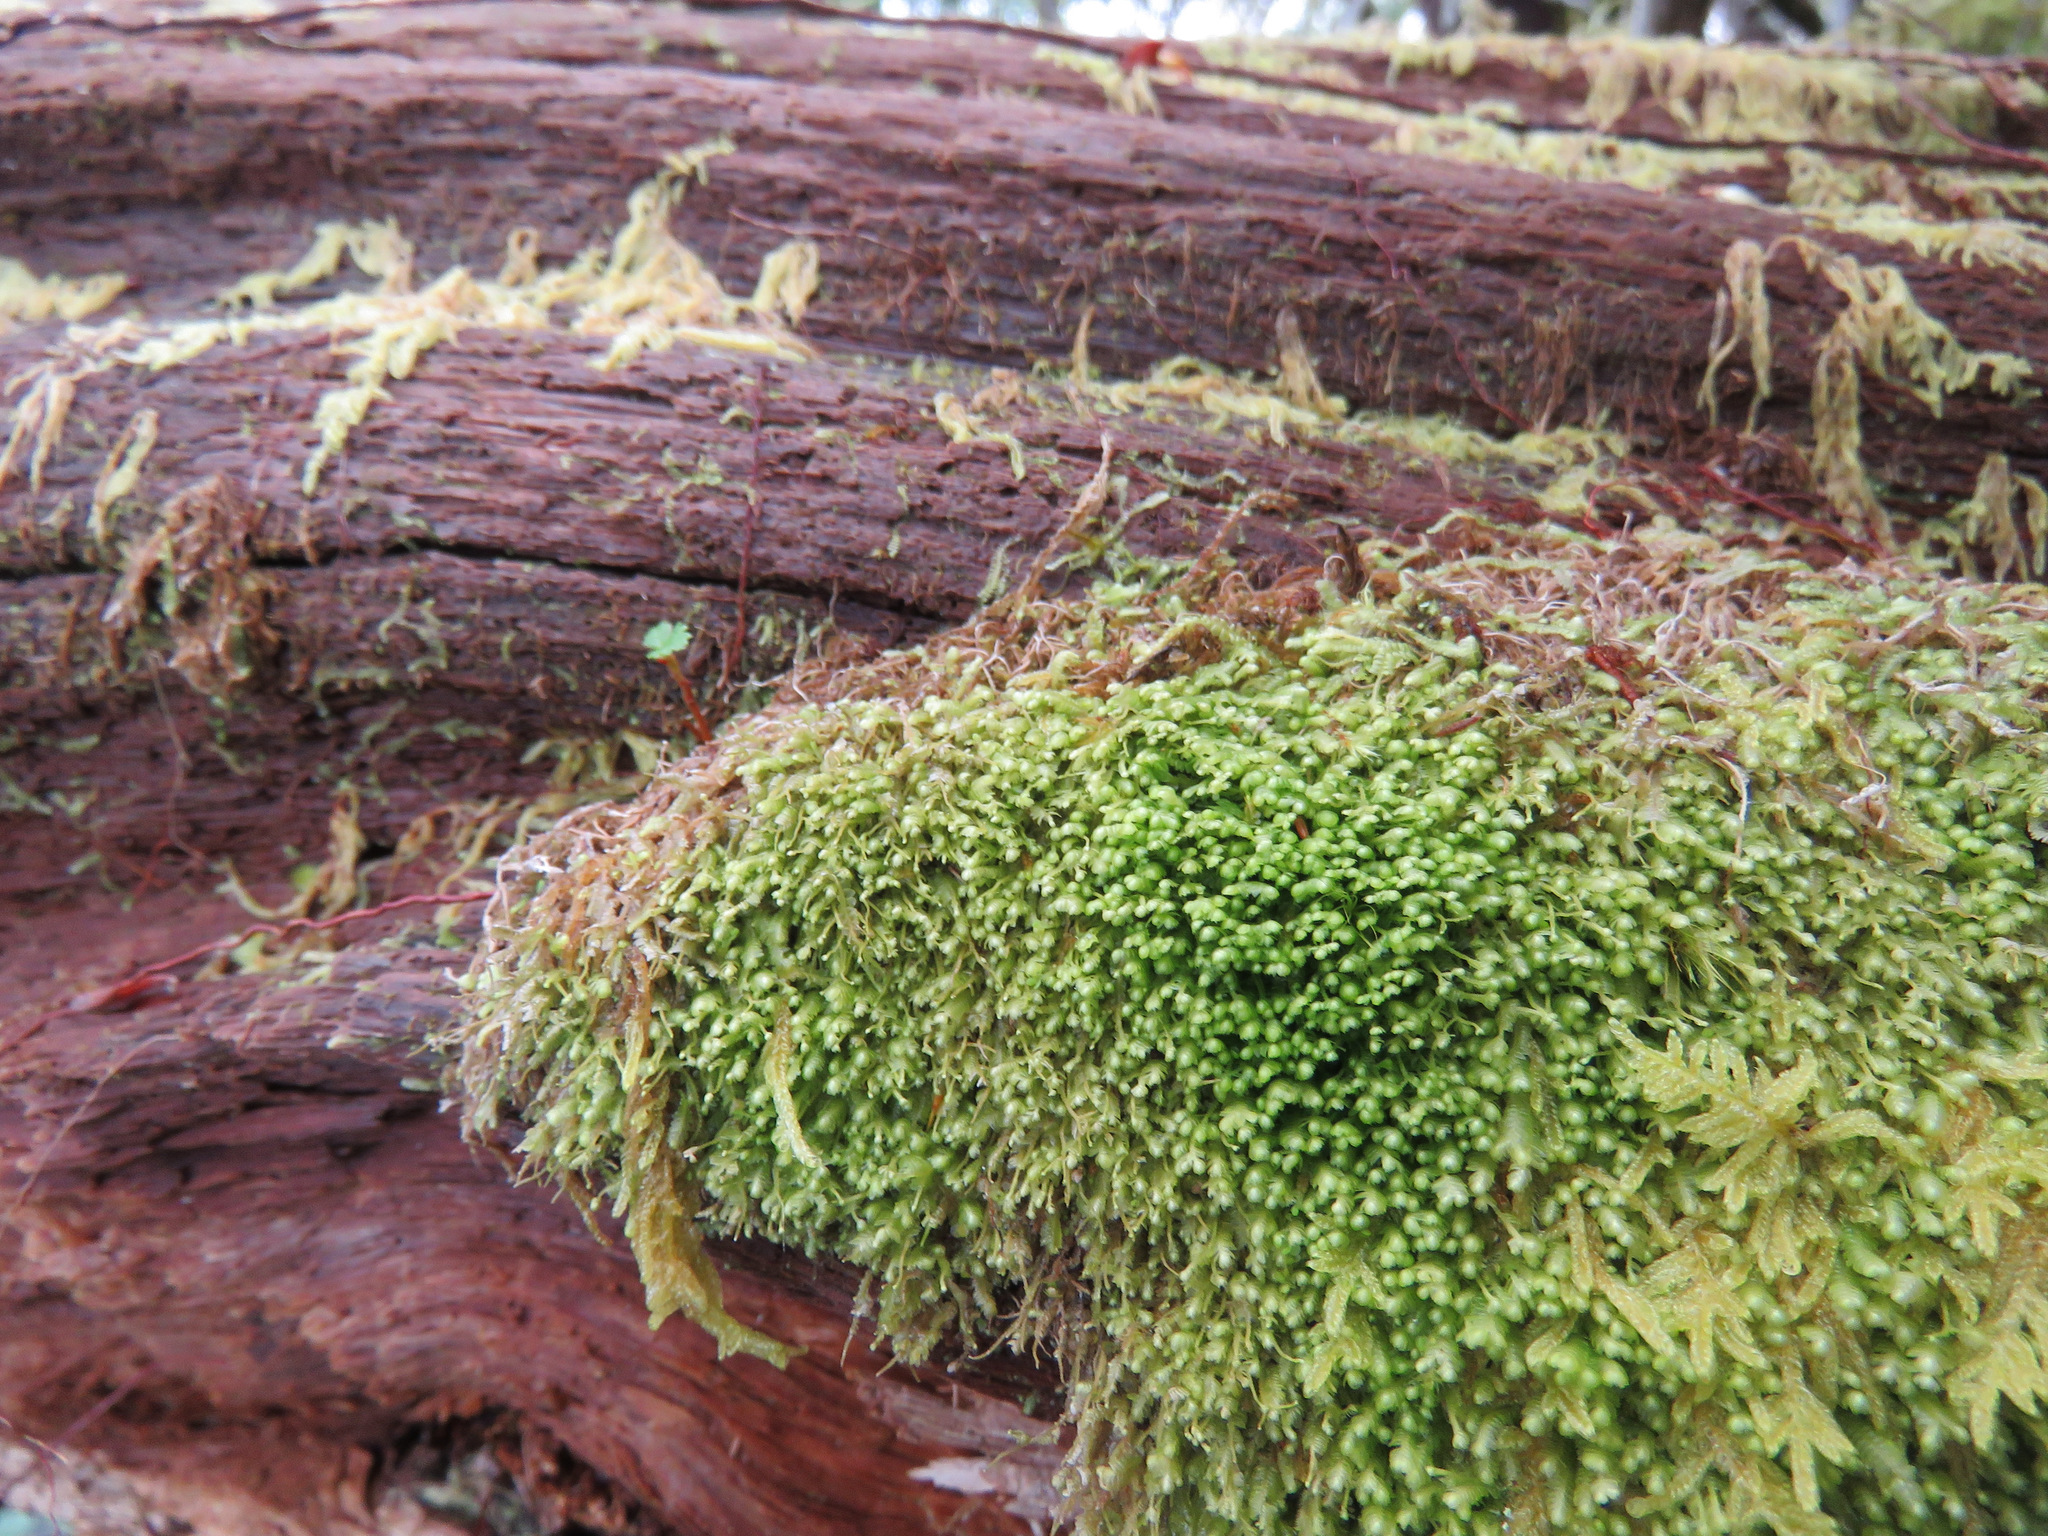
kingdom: Plantae
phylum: Marchantiophyta
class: Jungermanniopsida
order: Jungermanniales
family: Lepidoziaceae
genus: Bazzania
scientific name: Bazzania denudata
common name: Naked whipwort
